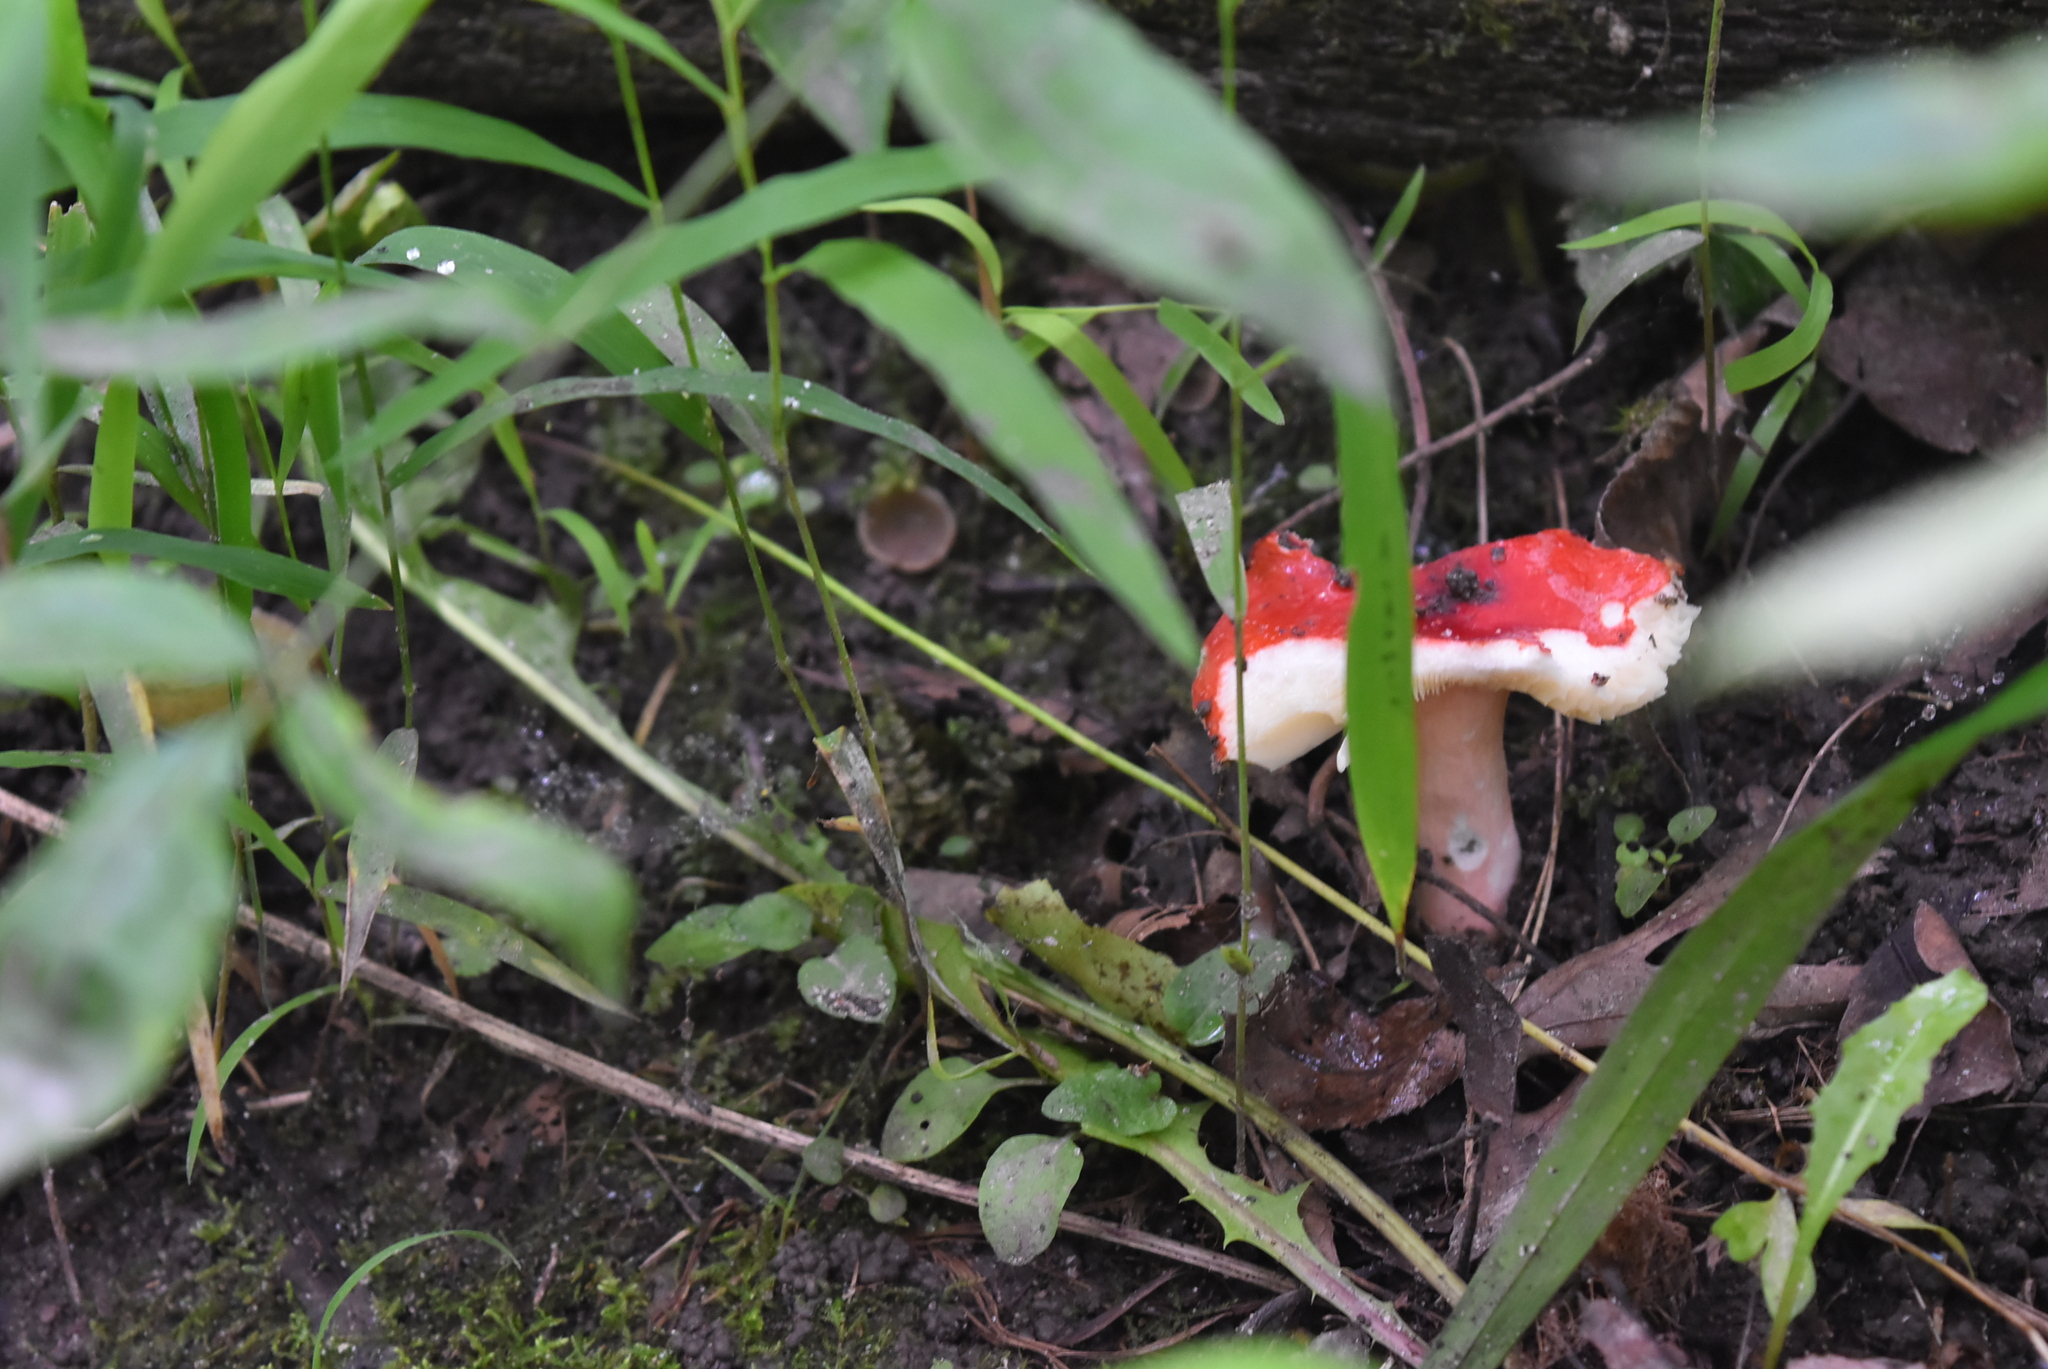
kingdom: Fungi
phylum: Basidiomycota
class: Agaricomycetes
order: Russulales
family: Russulaceae
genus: Russula
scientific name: Russula
